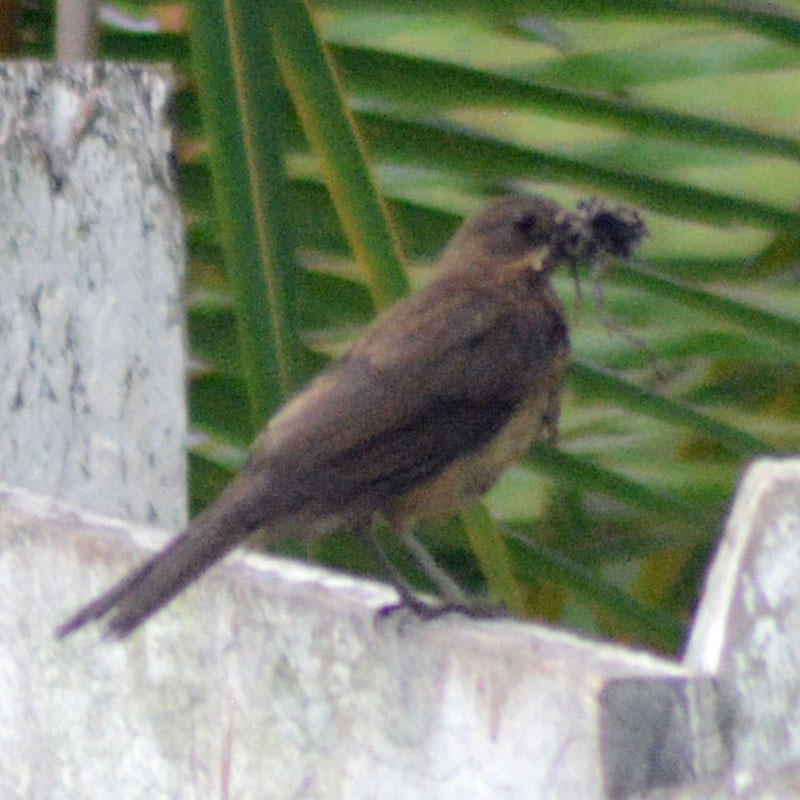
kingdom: Animalia
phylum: Chordata
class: Aves
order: Passeriformes
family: Turdidae
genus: Turdus
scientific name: Turdus grayi
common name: Clay-colored thrush
